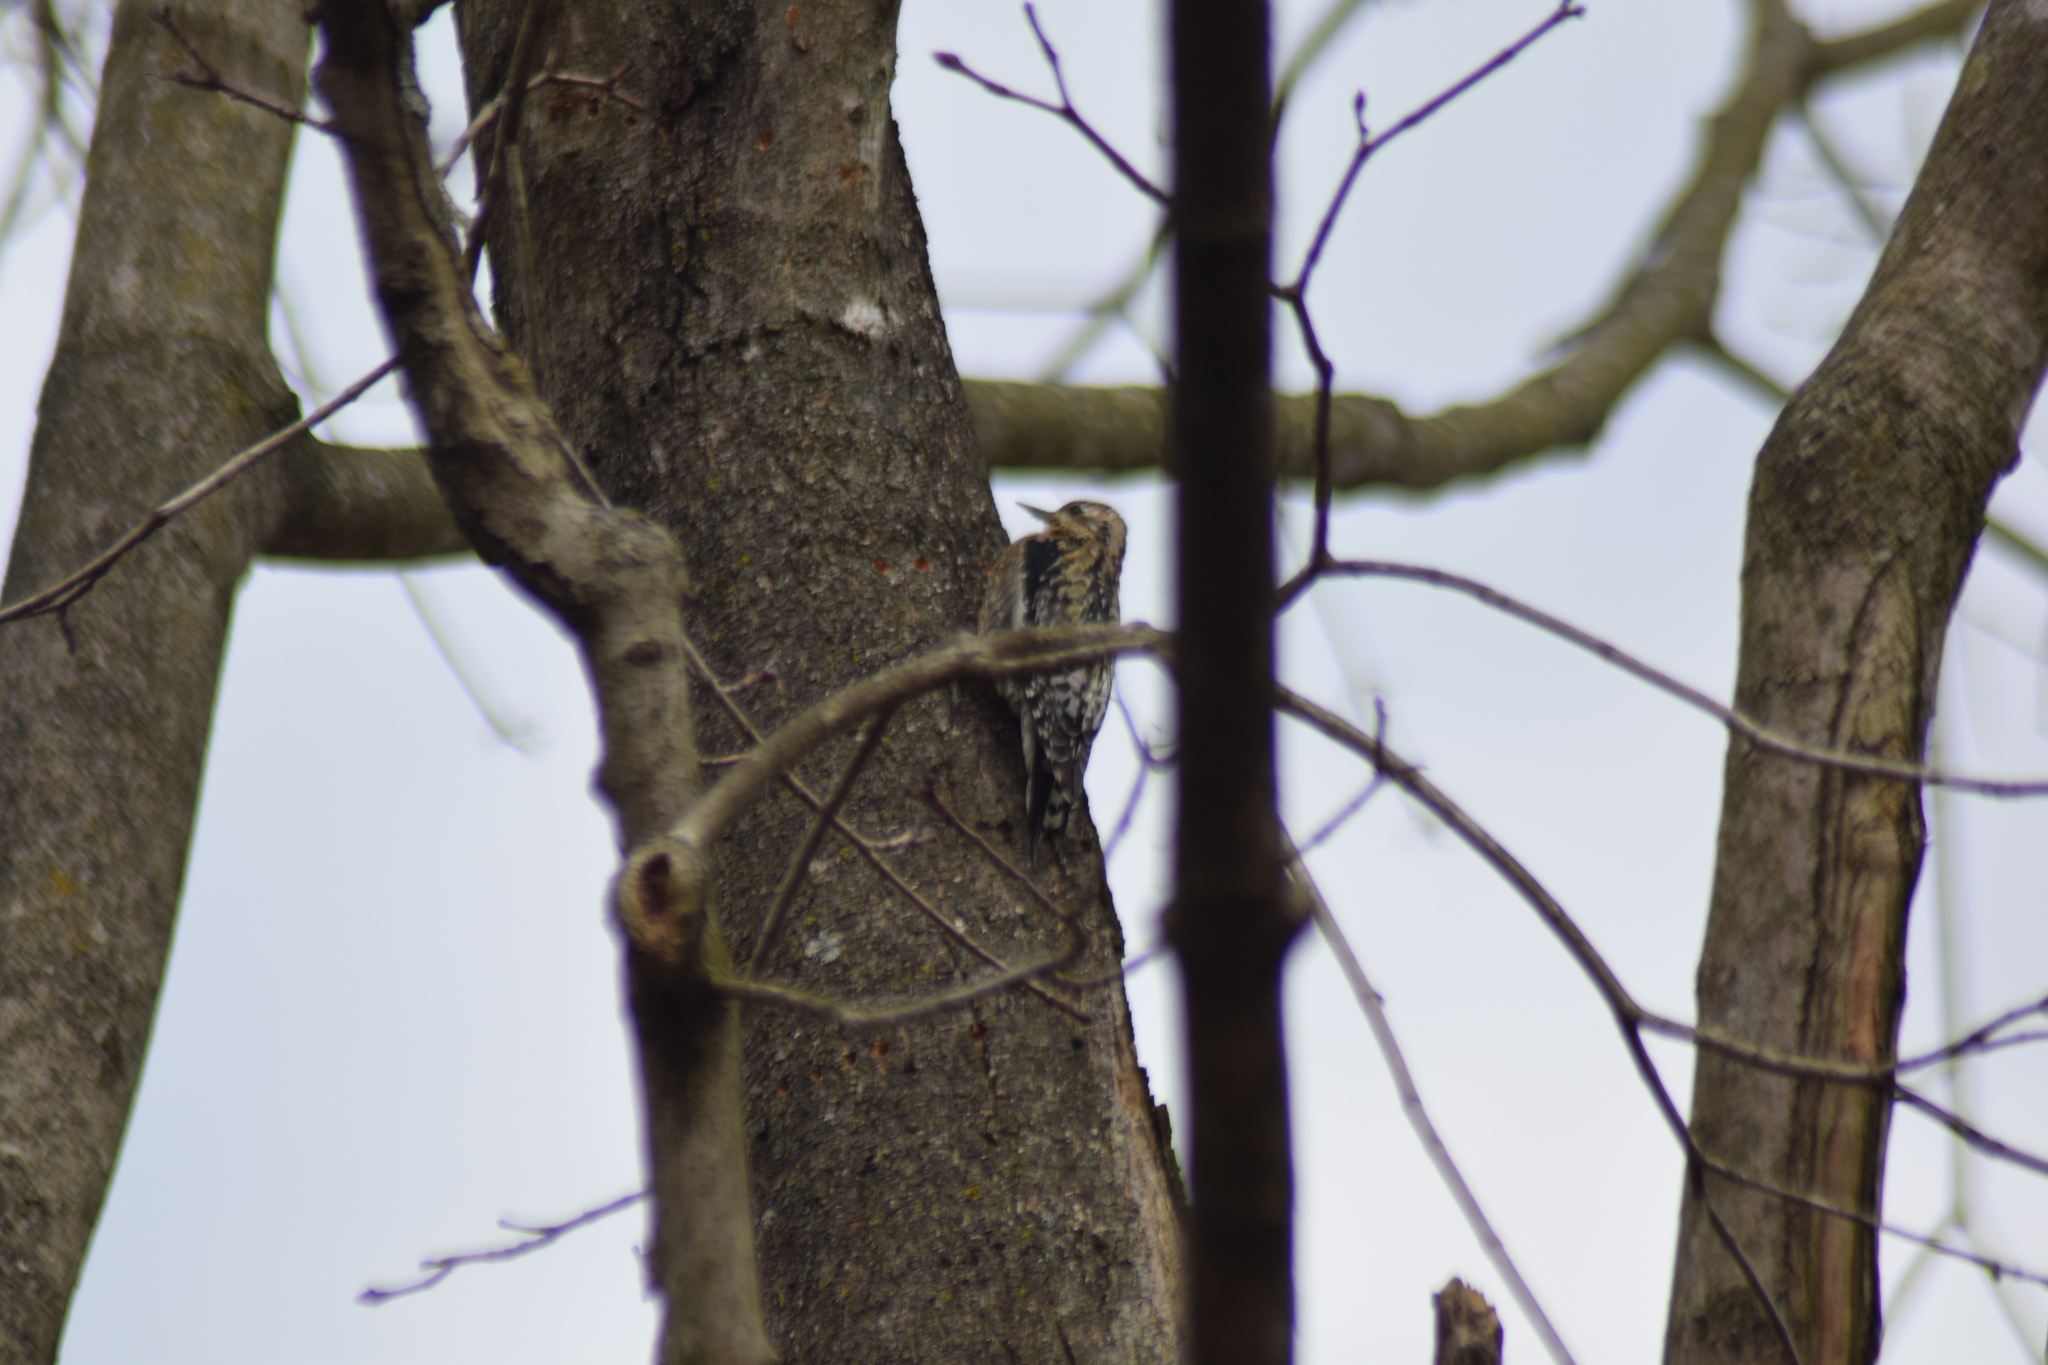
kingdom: Animalia
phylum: Chordata
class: Aves
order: Piciformes
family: Picidae
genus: Sphyrapicus
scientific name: Sphyrapicus varius
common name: Yellow-bellied sapsucker
